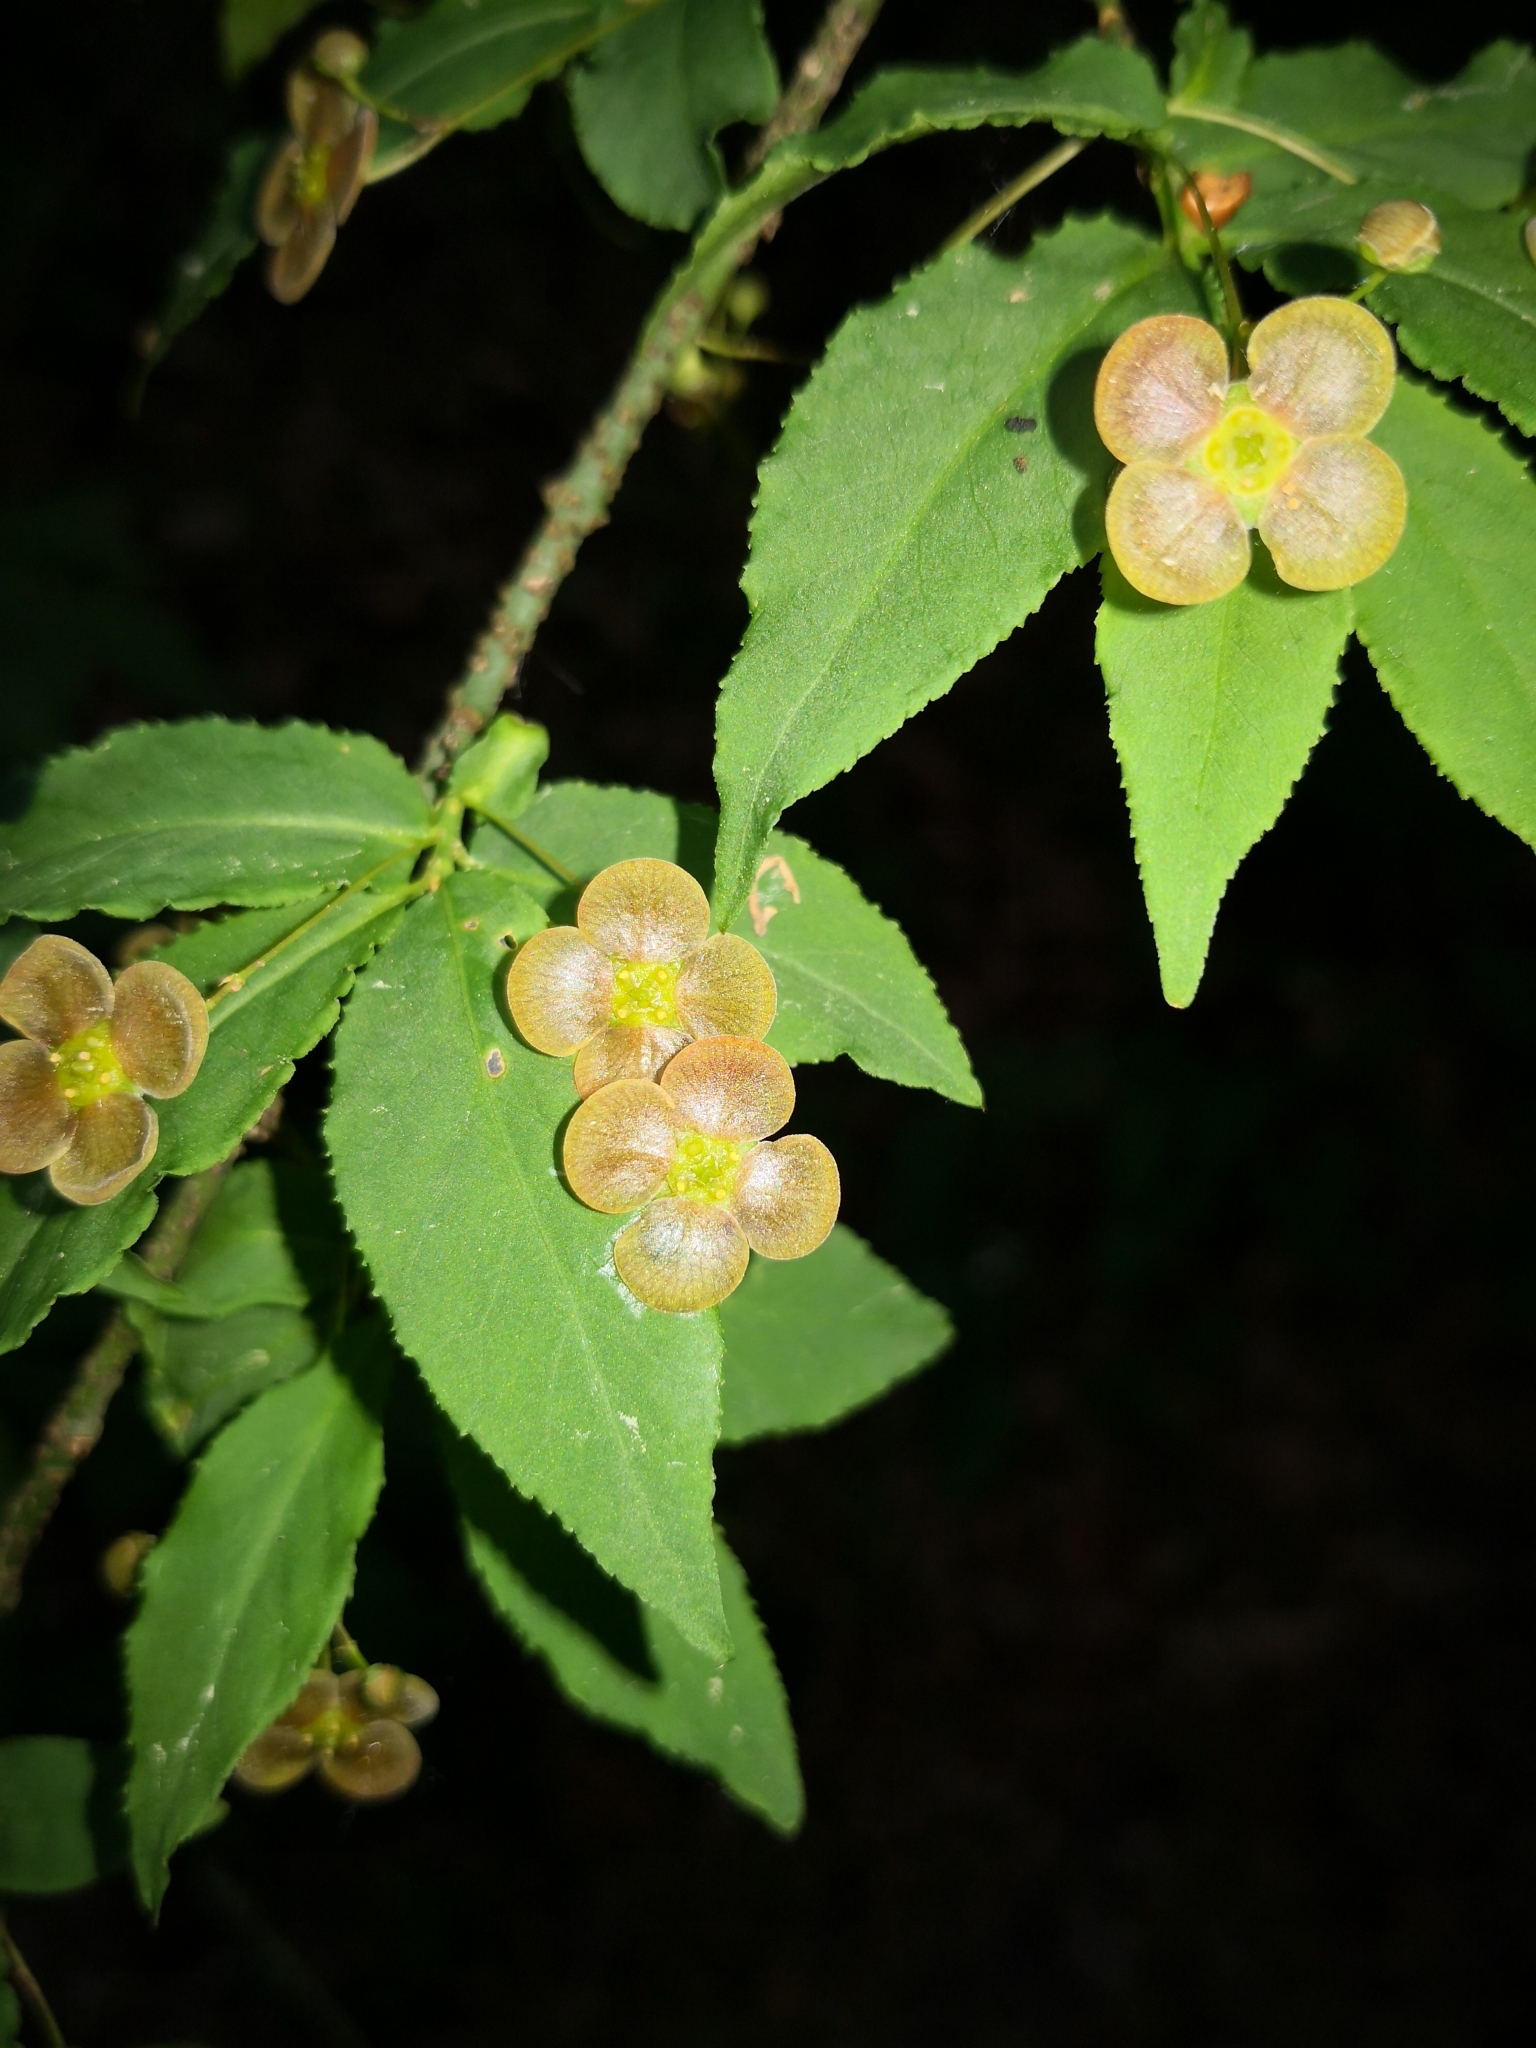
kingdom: Plantae
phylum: Tracheophyta
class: Magnoliopsida
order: Celastrales
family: Celastraceae
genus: Euonymus
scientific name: Euonymus verrucosus
